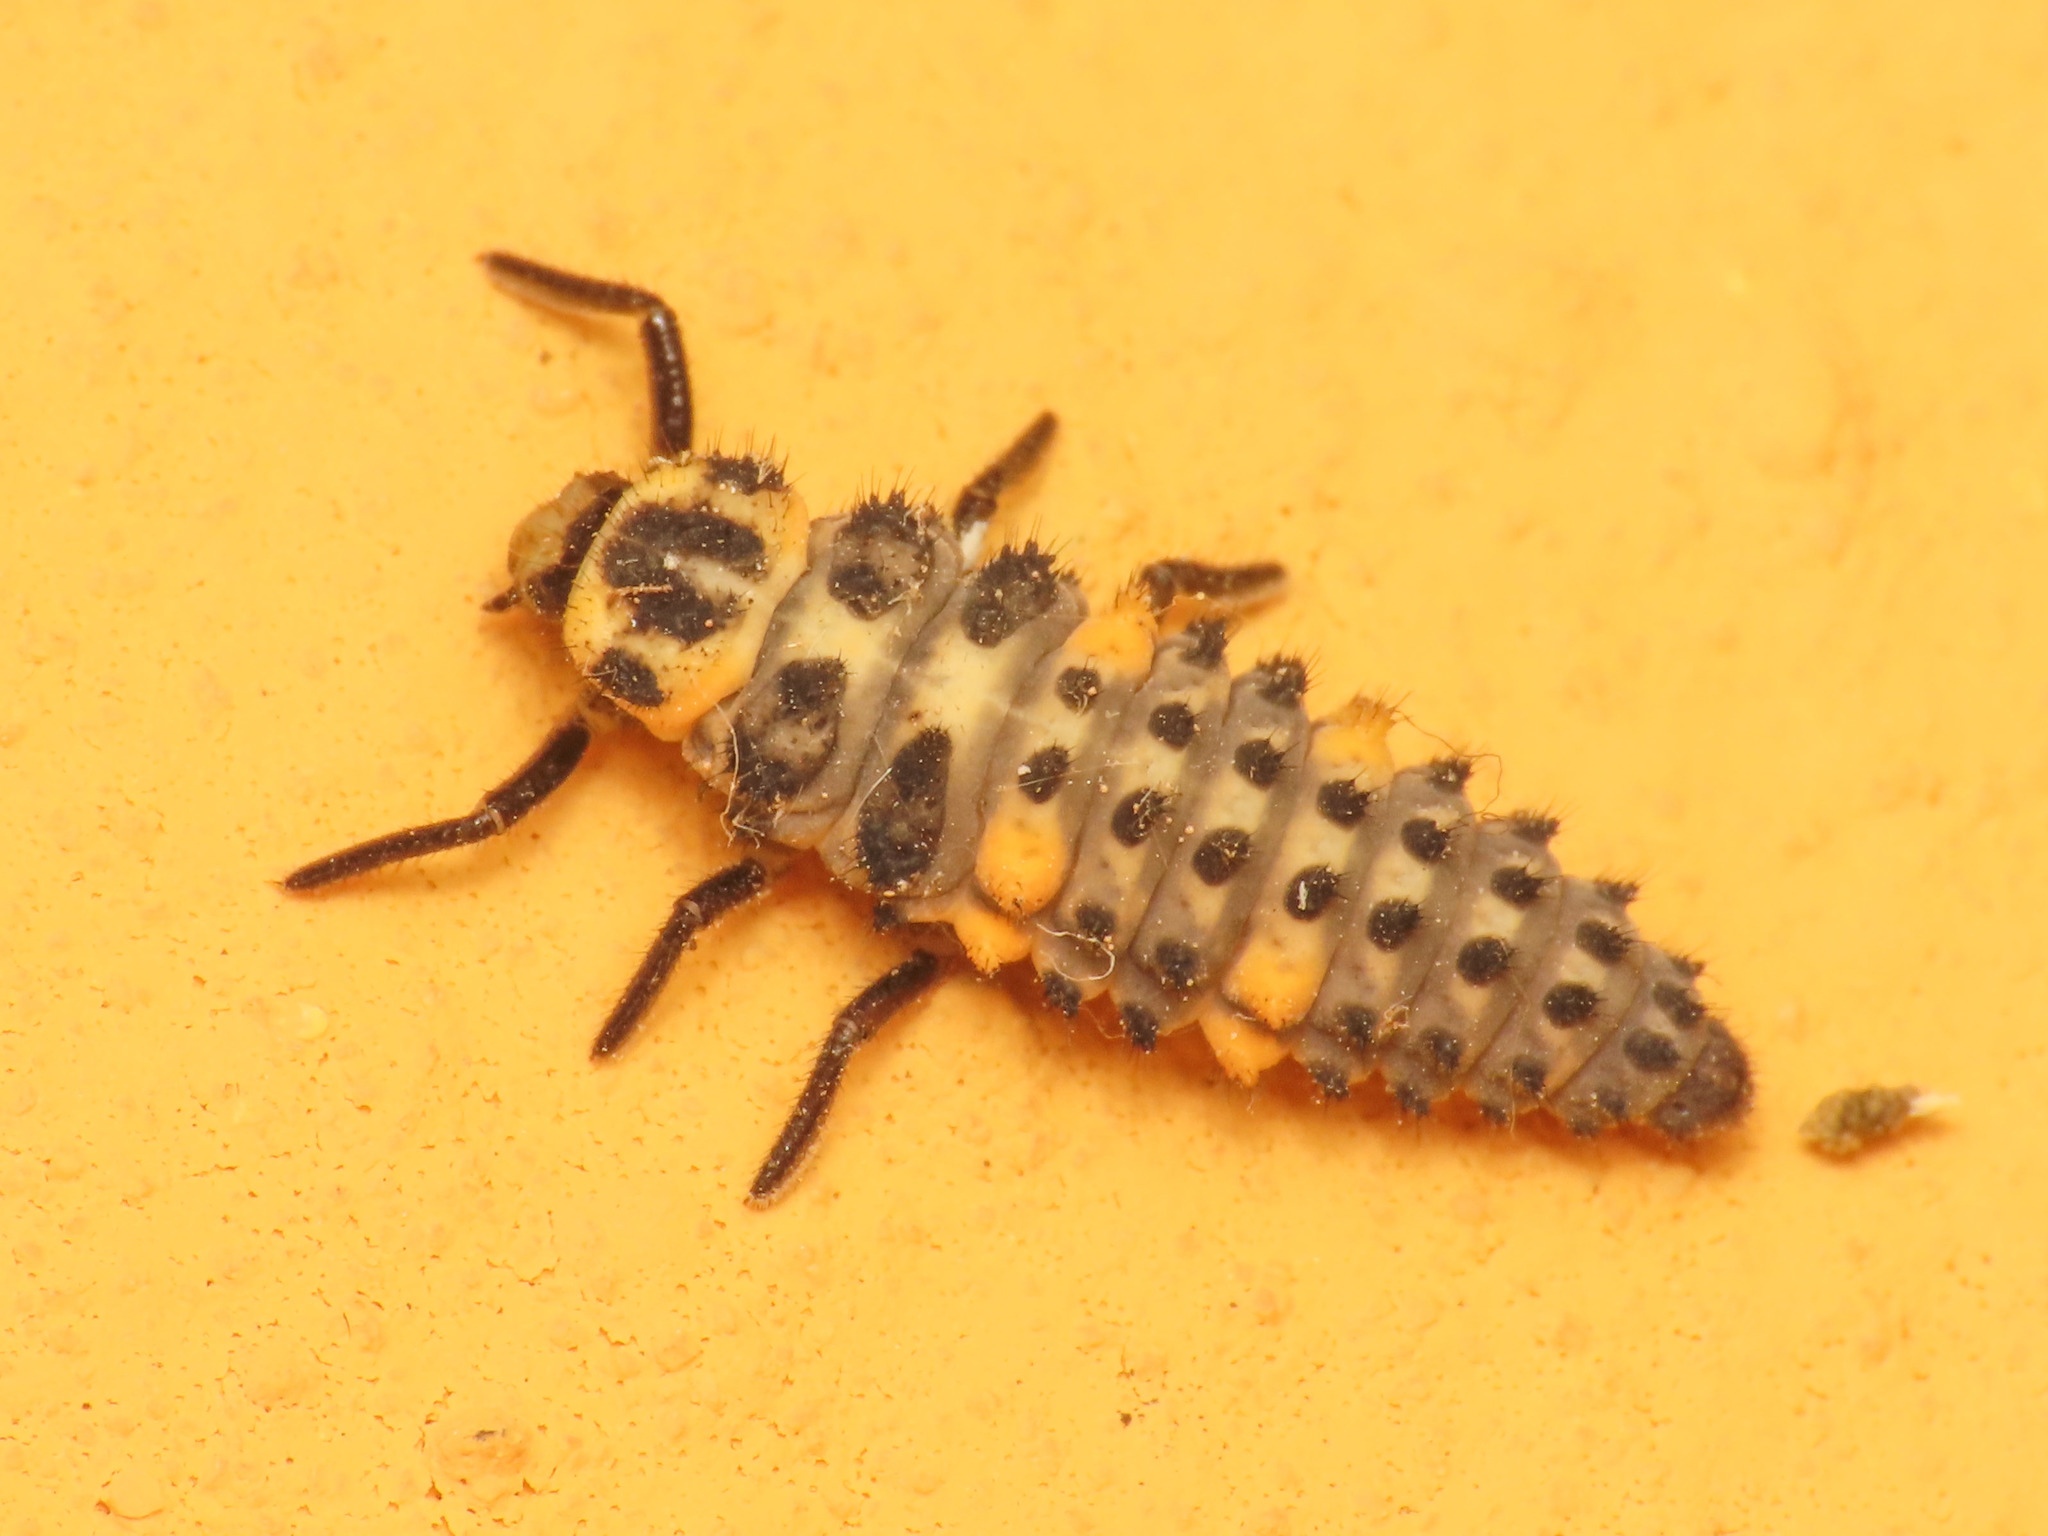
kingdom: Animalia
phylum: Arthropoda
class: Insecta
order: Coleoptera
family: Coccinellidae
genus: Coccinella
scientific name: Coccinella septempunctata
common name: Sevenspotted lady beetle
